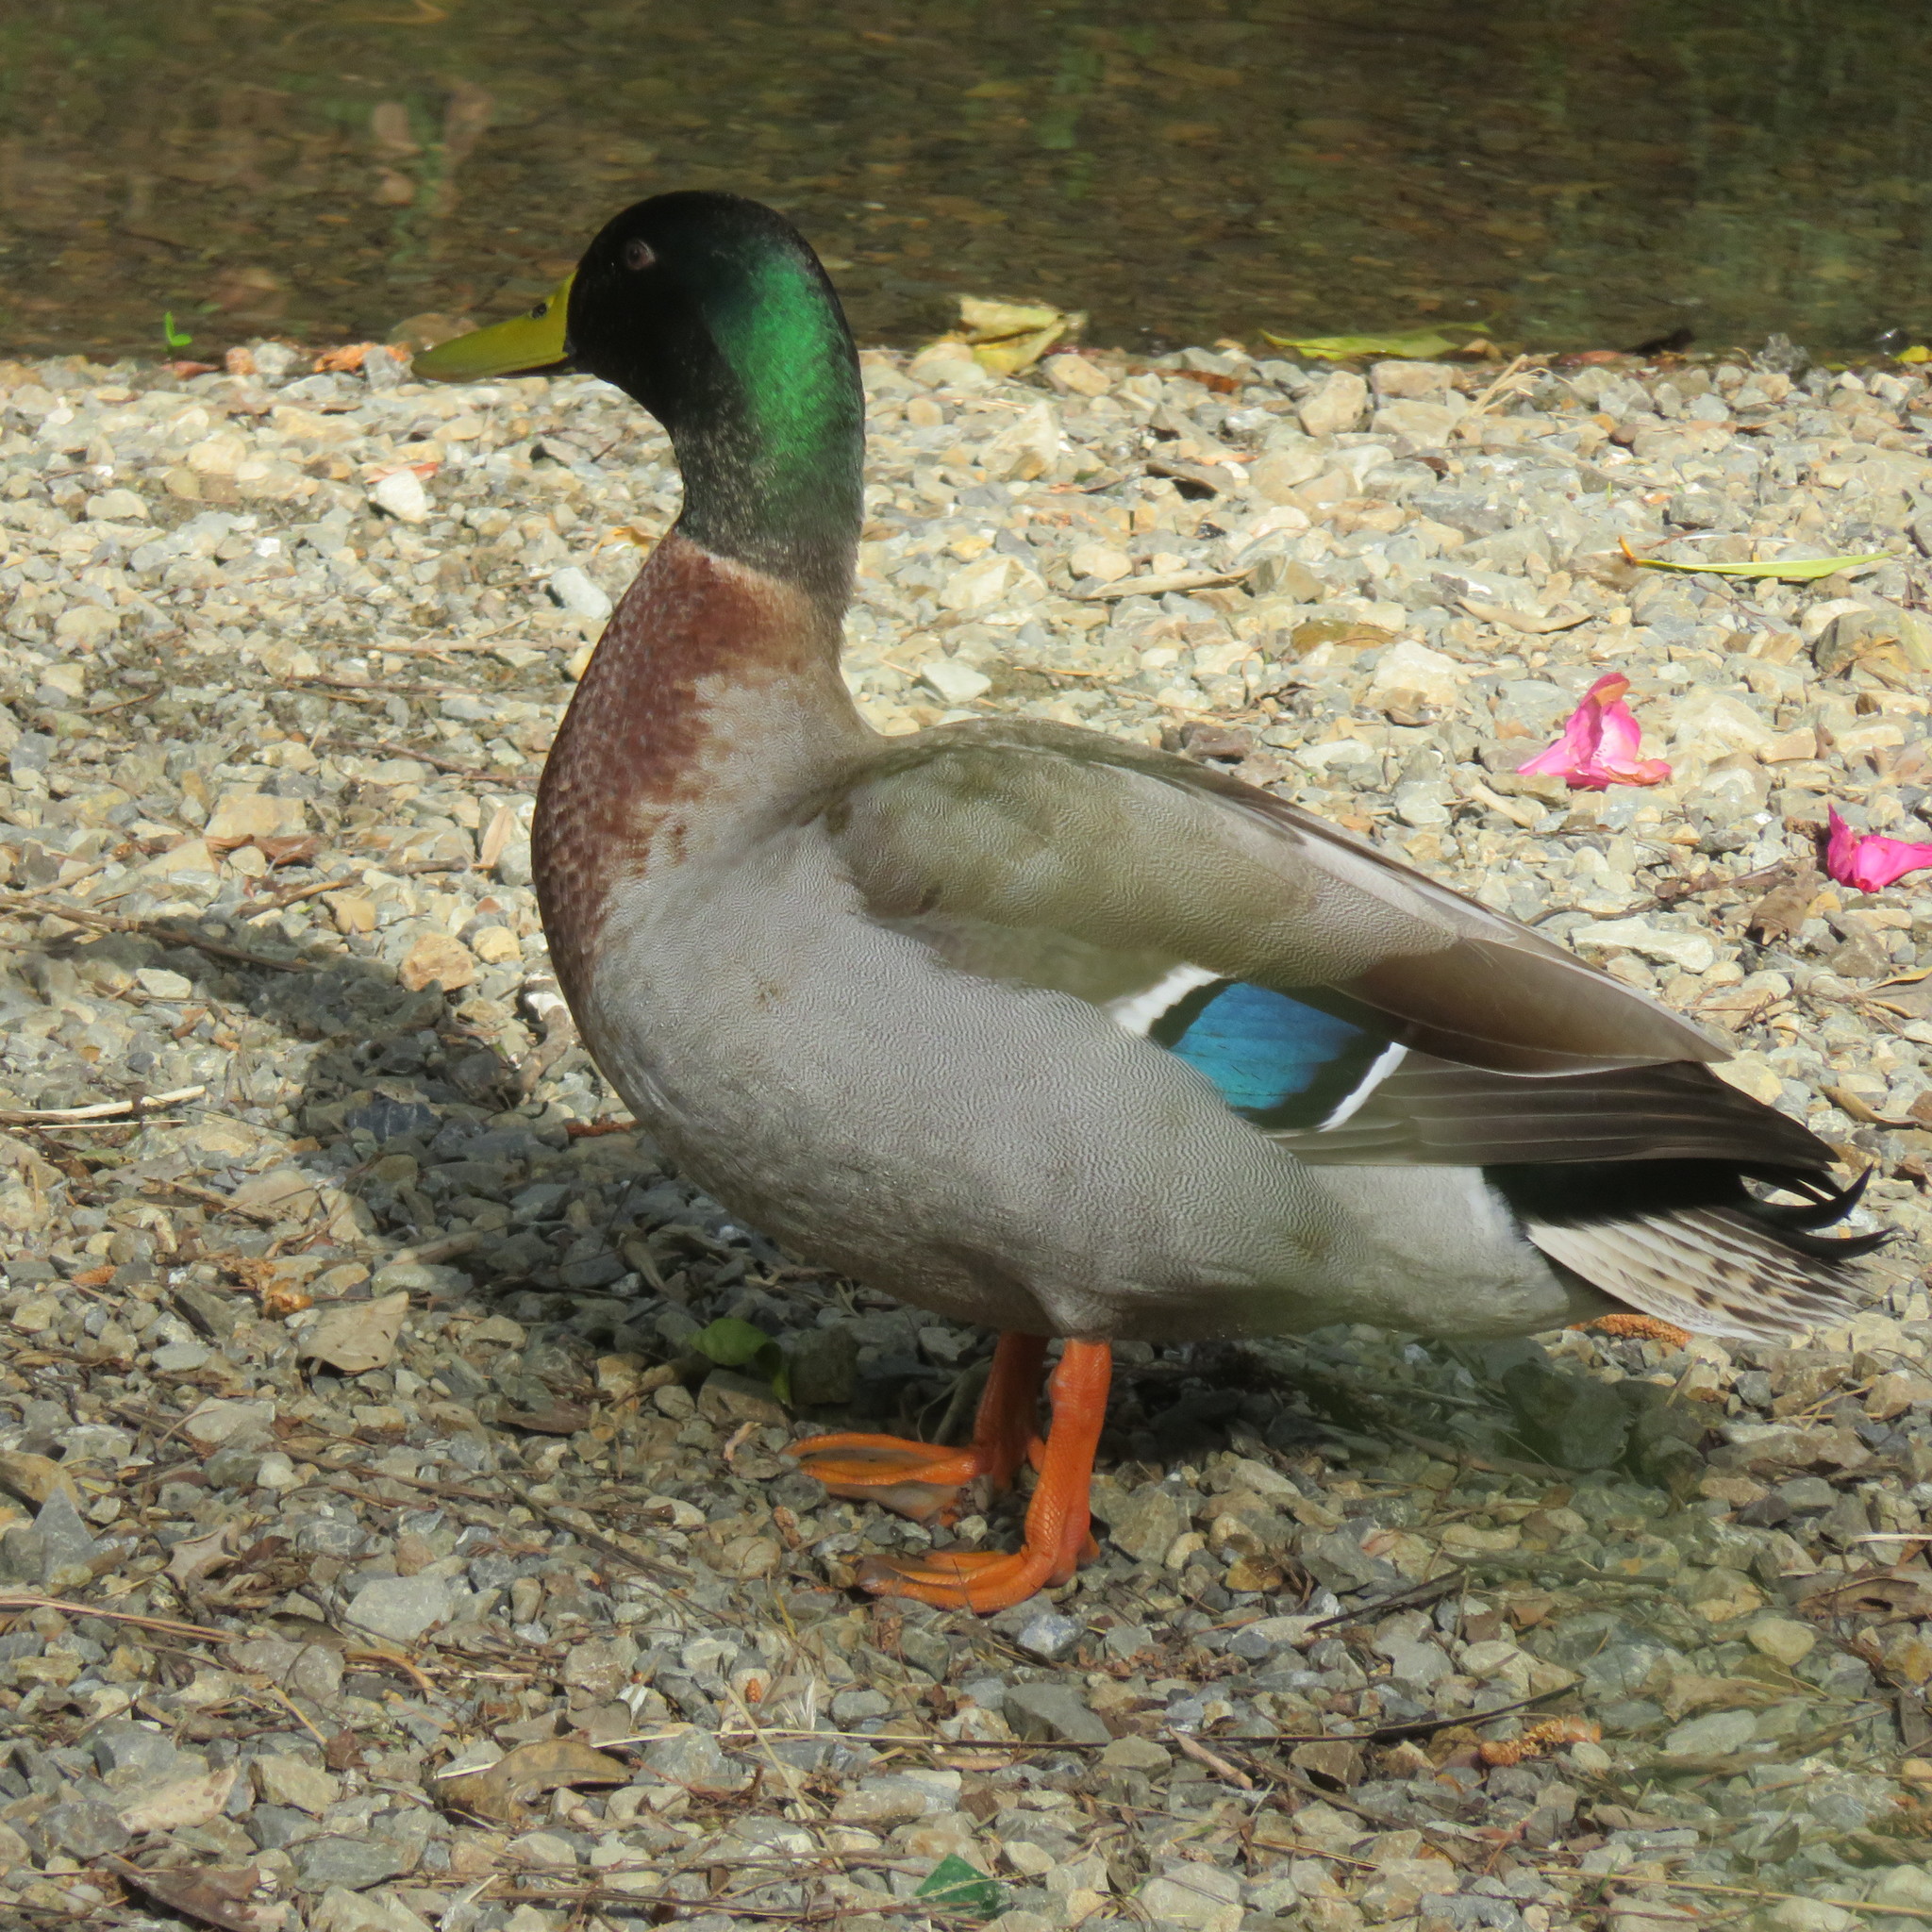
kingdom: Animalia
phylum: Chordata
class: Aves
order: Anseriformes
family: Anatidae
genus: Anas
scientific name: Anas platyrhynchos
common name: Mallard
